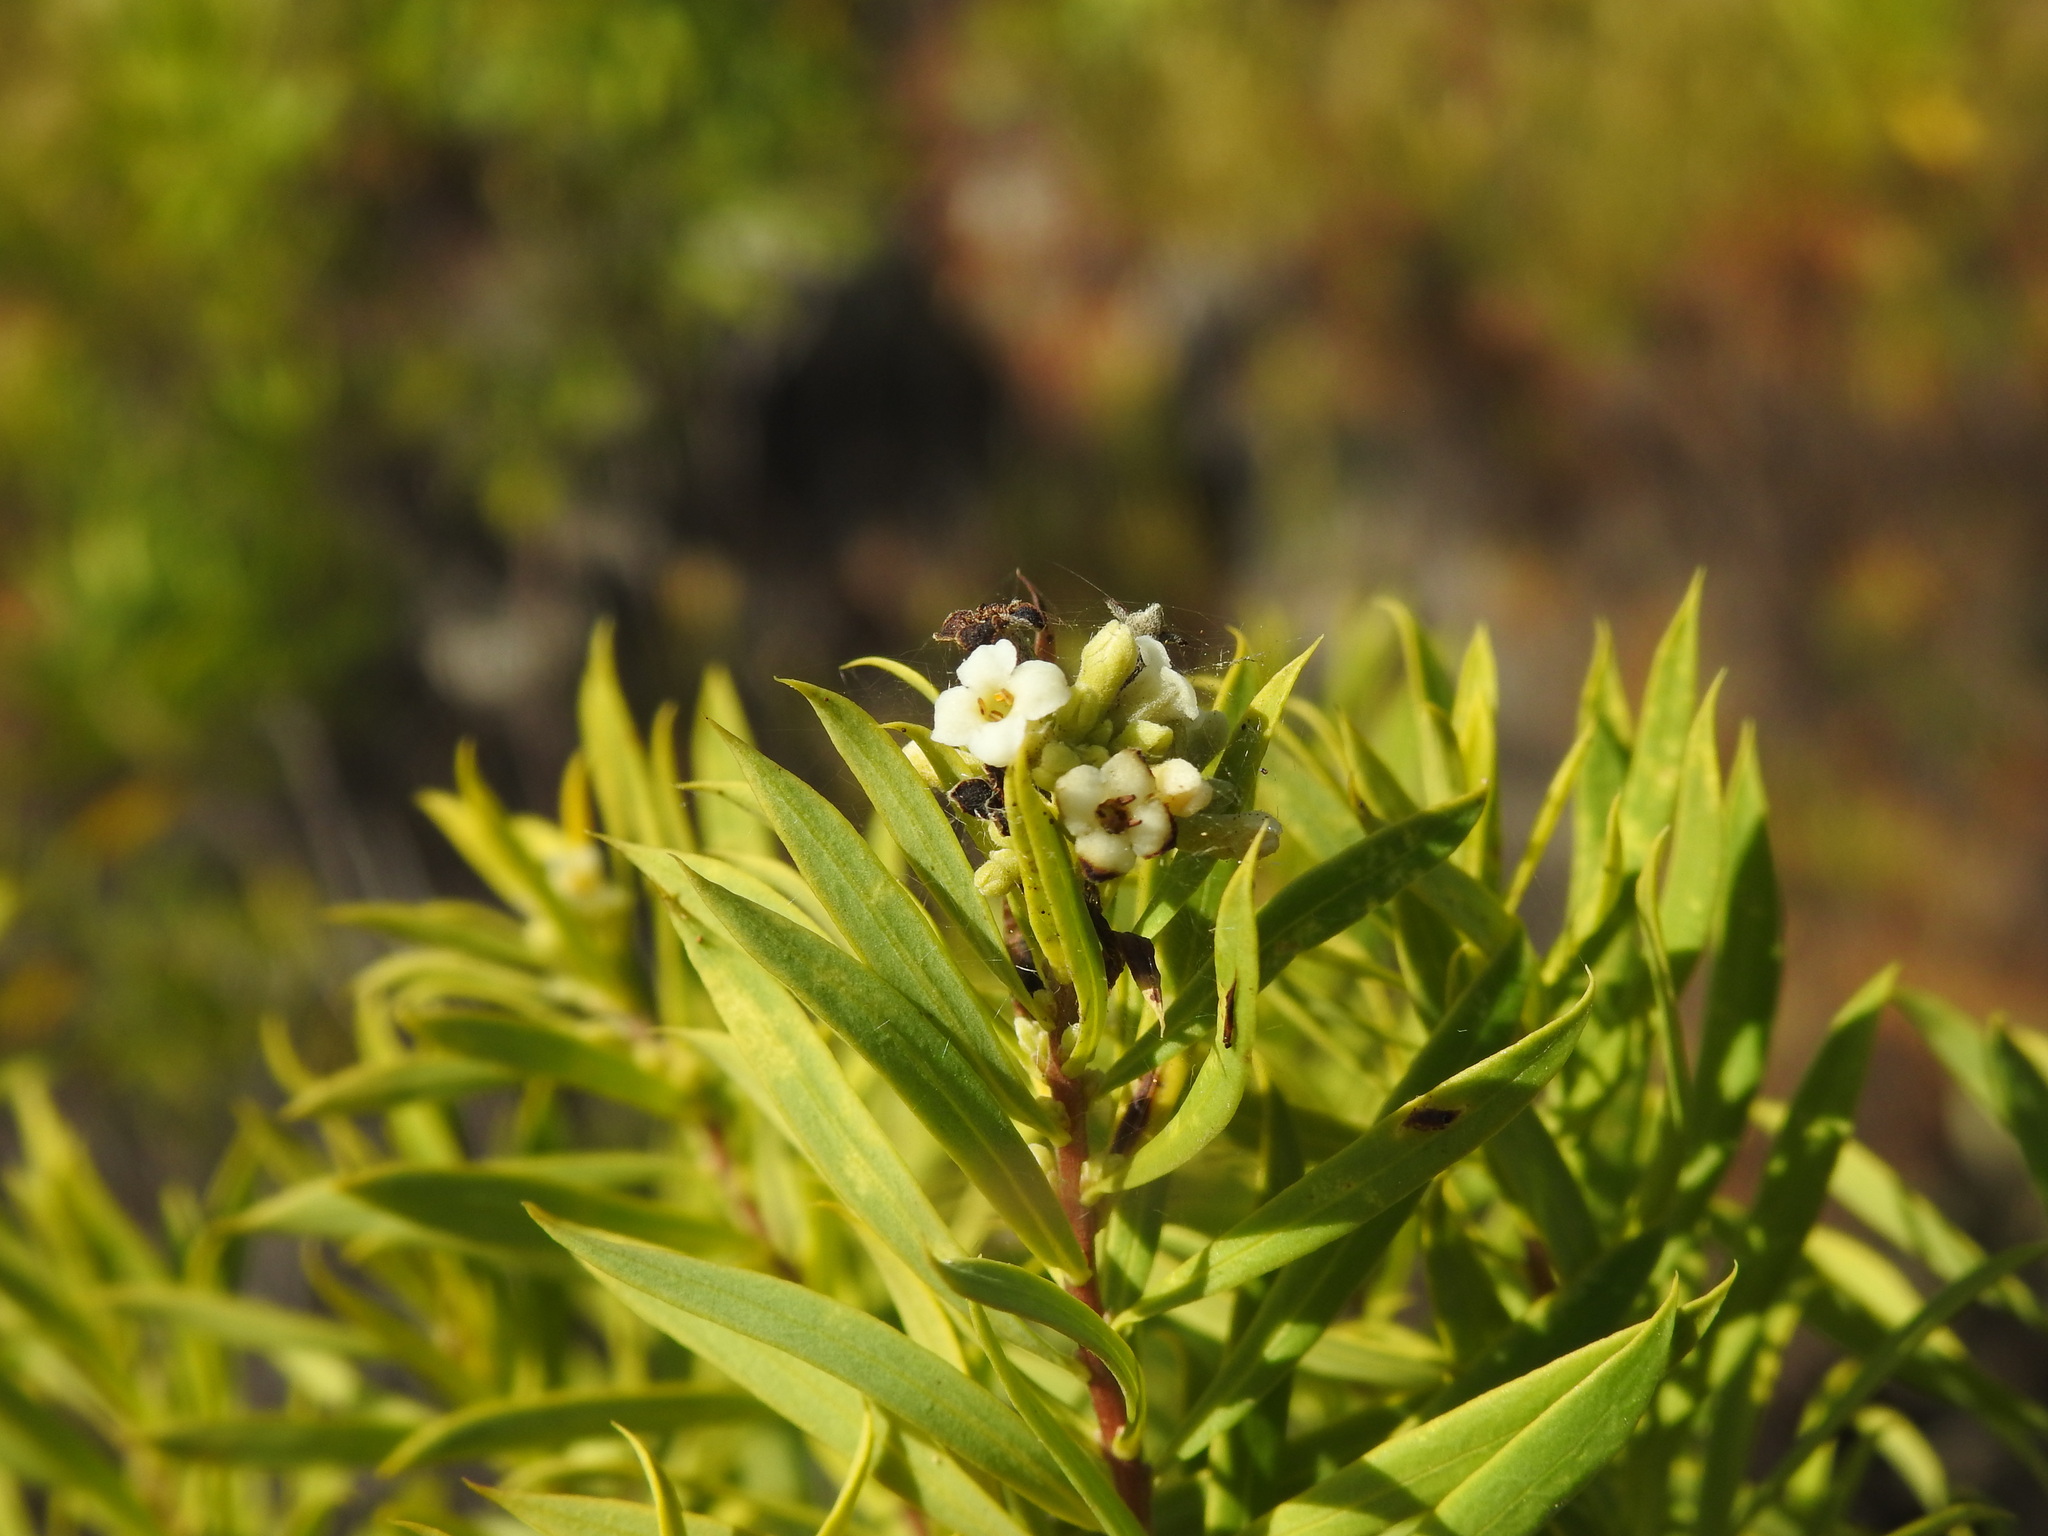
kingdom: Plantae
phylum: Tracheophyta
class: Magnoliopsida
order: Malvales
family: Thymelaeaceae
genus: Daphne
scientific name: Daphne gnidium
